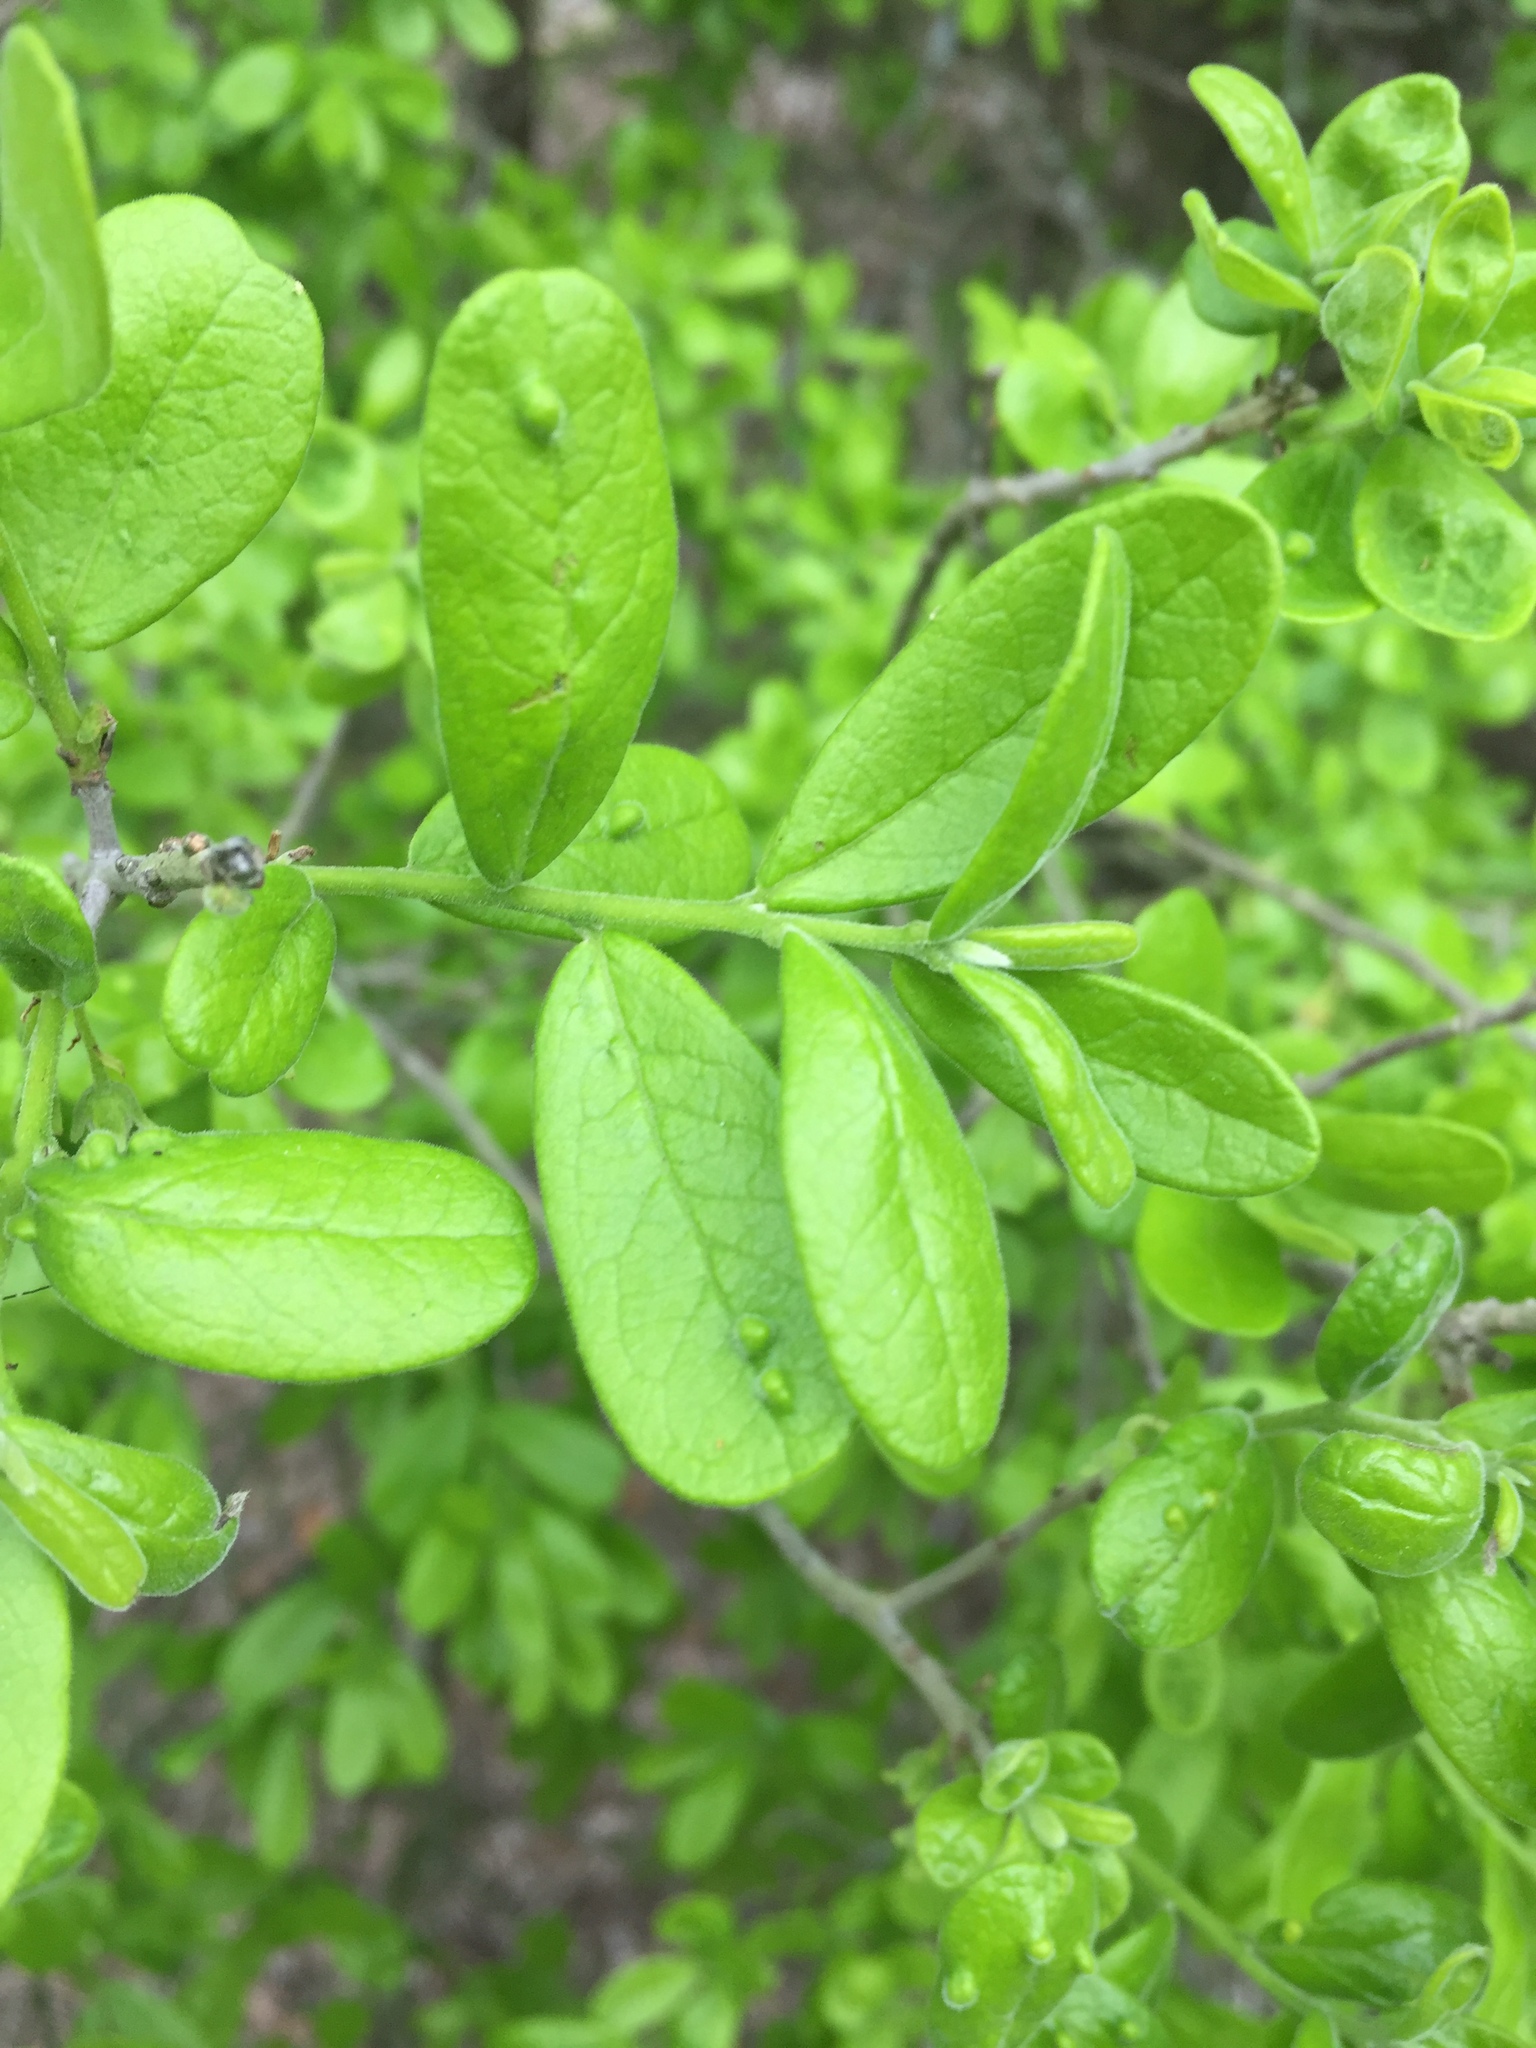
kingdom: Plantae
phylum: Tracheophyta
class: Magnoliopsida
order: Ericales
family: Ebenaceae
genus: Diospyros
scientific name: Diospyros texana
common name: Texas persimmon
